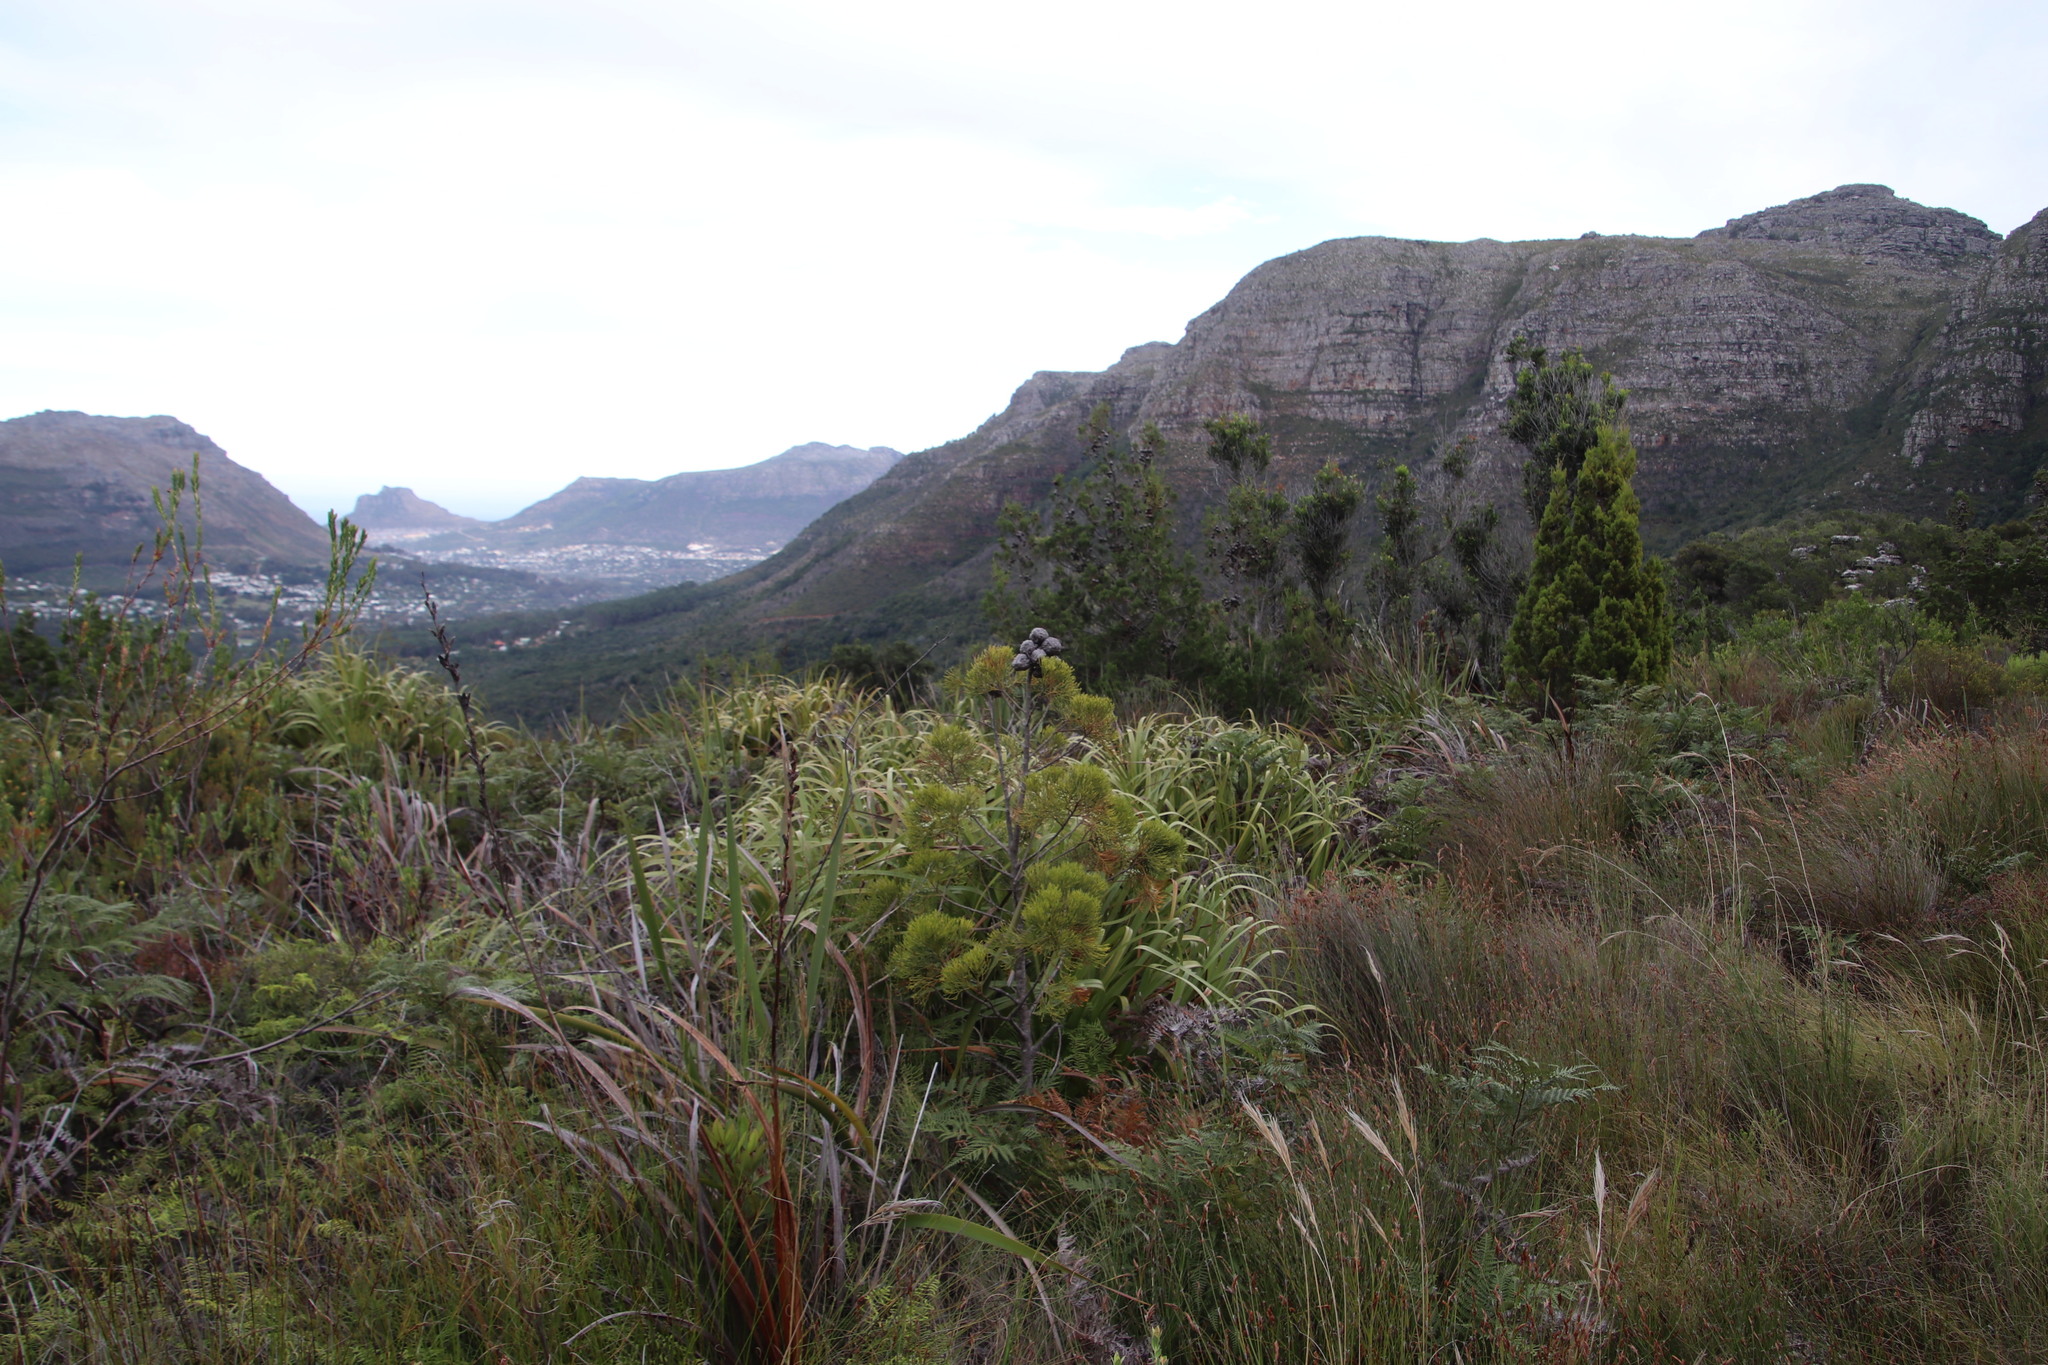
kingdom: Plantae
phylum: Tracheophyta
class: Pinopsida
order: Pinales
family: Cupressaceae
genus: Widdringtonia
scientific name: Widdringtonia nodiflora
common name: Cape cypress
